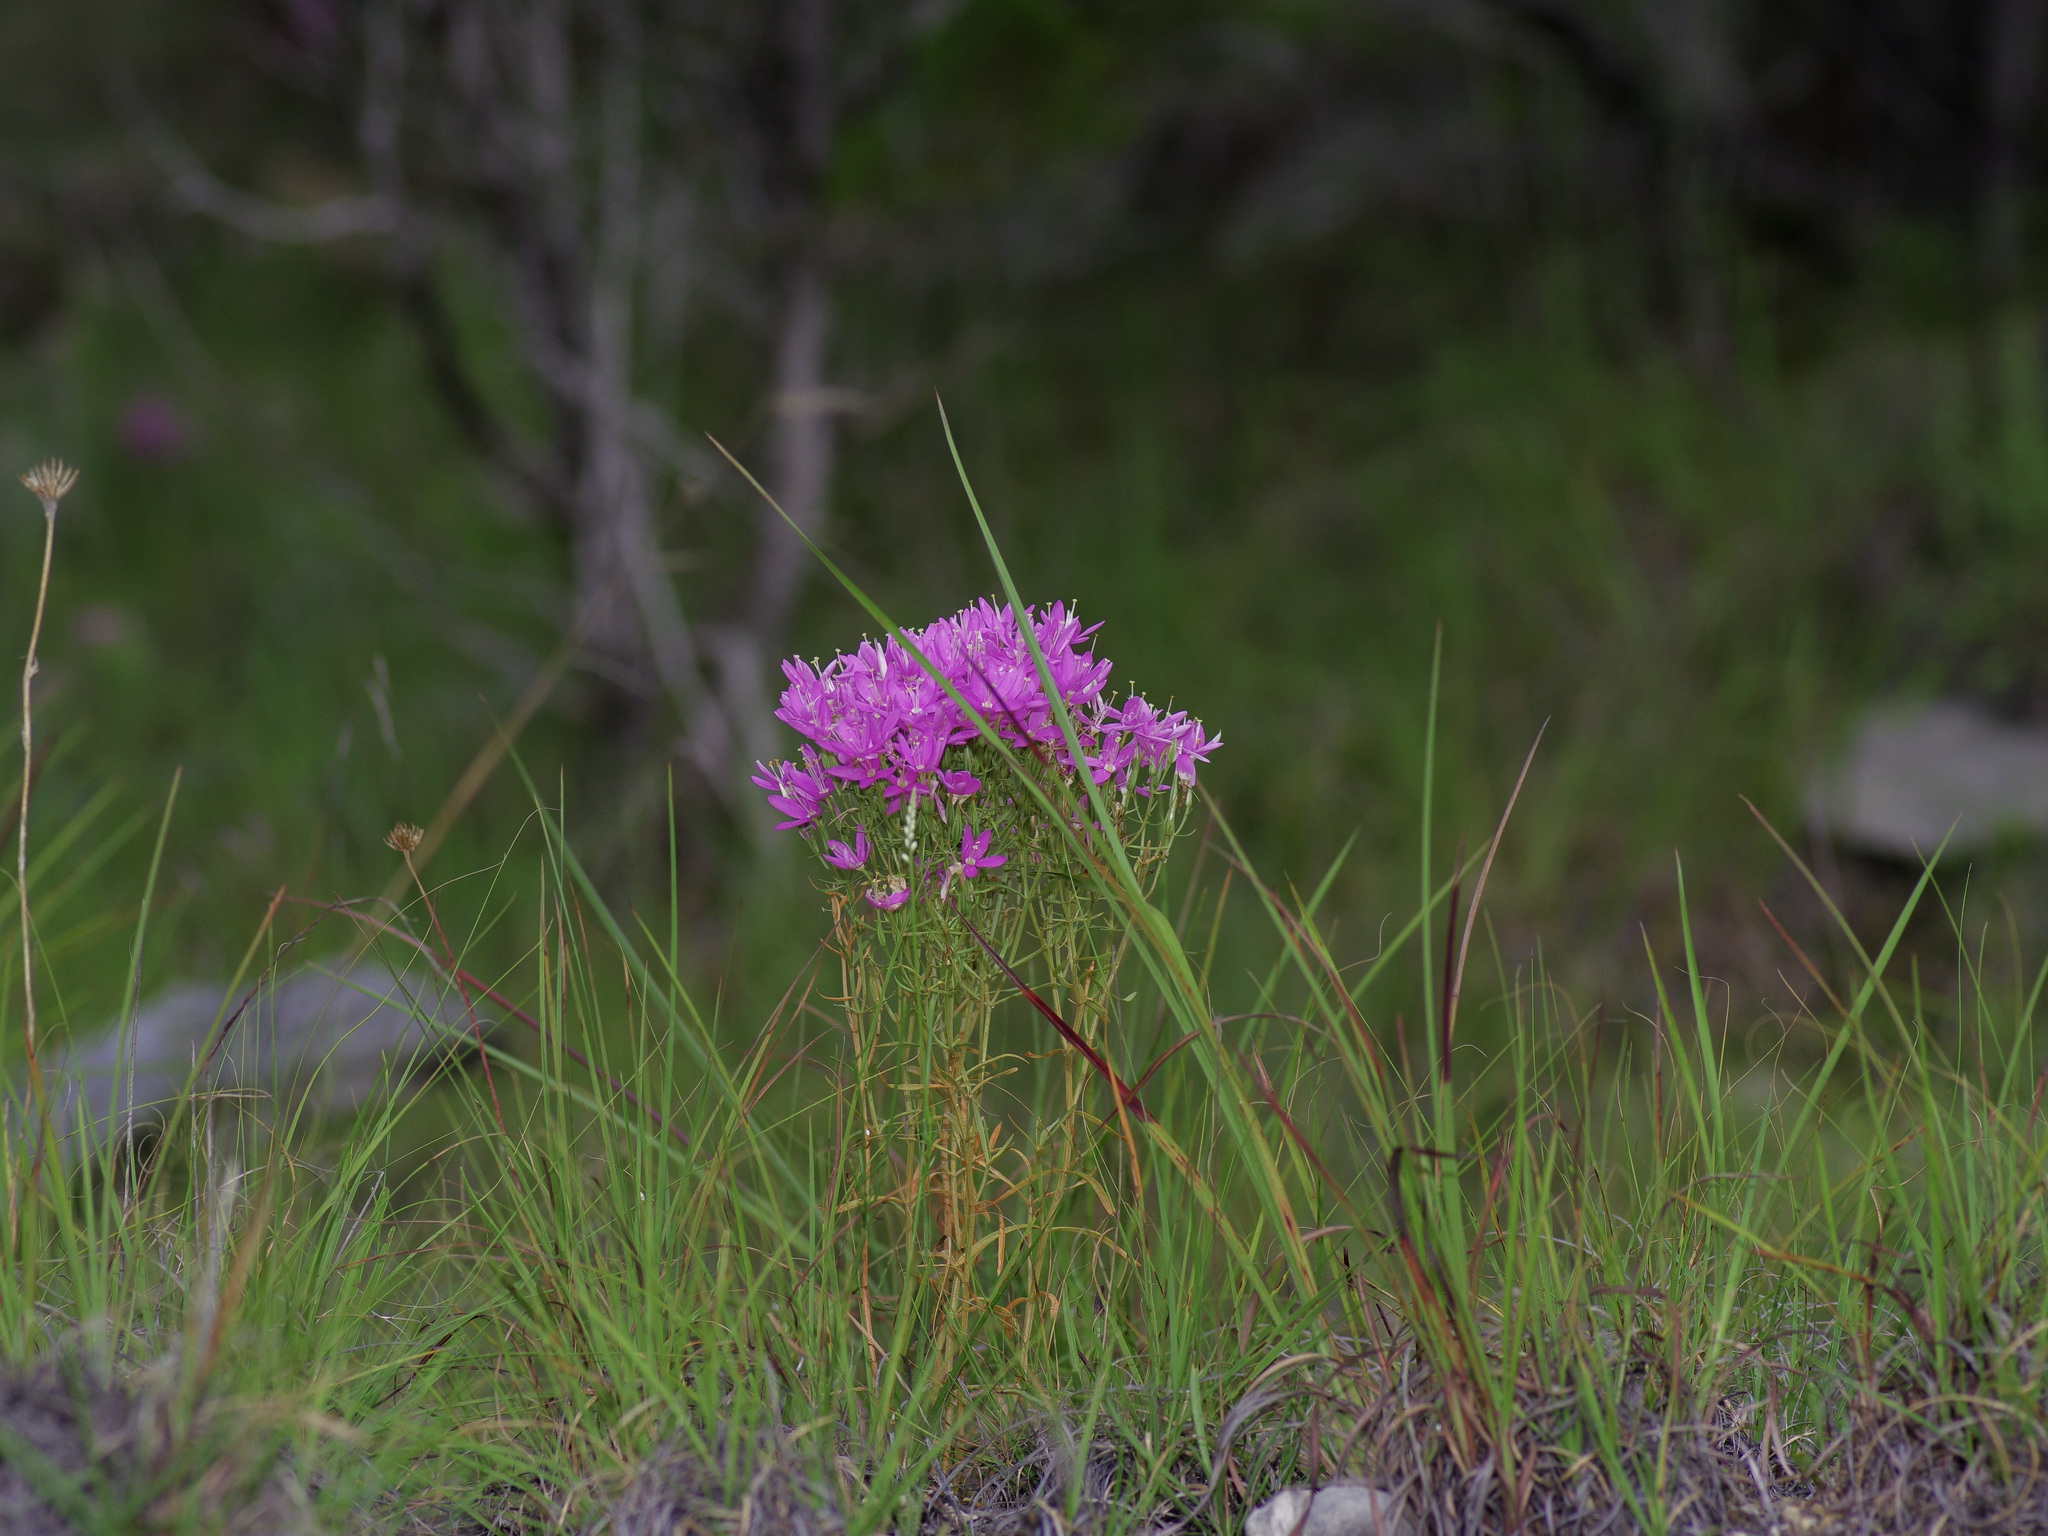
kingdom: Plantae
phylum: Tracheophyta
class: Magnoliopsida
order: Gentianales
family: Gentianaceae
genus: Zeltnera
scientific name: Zeltnera beyrichii
